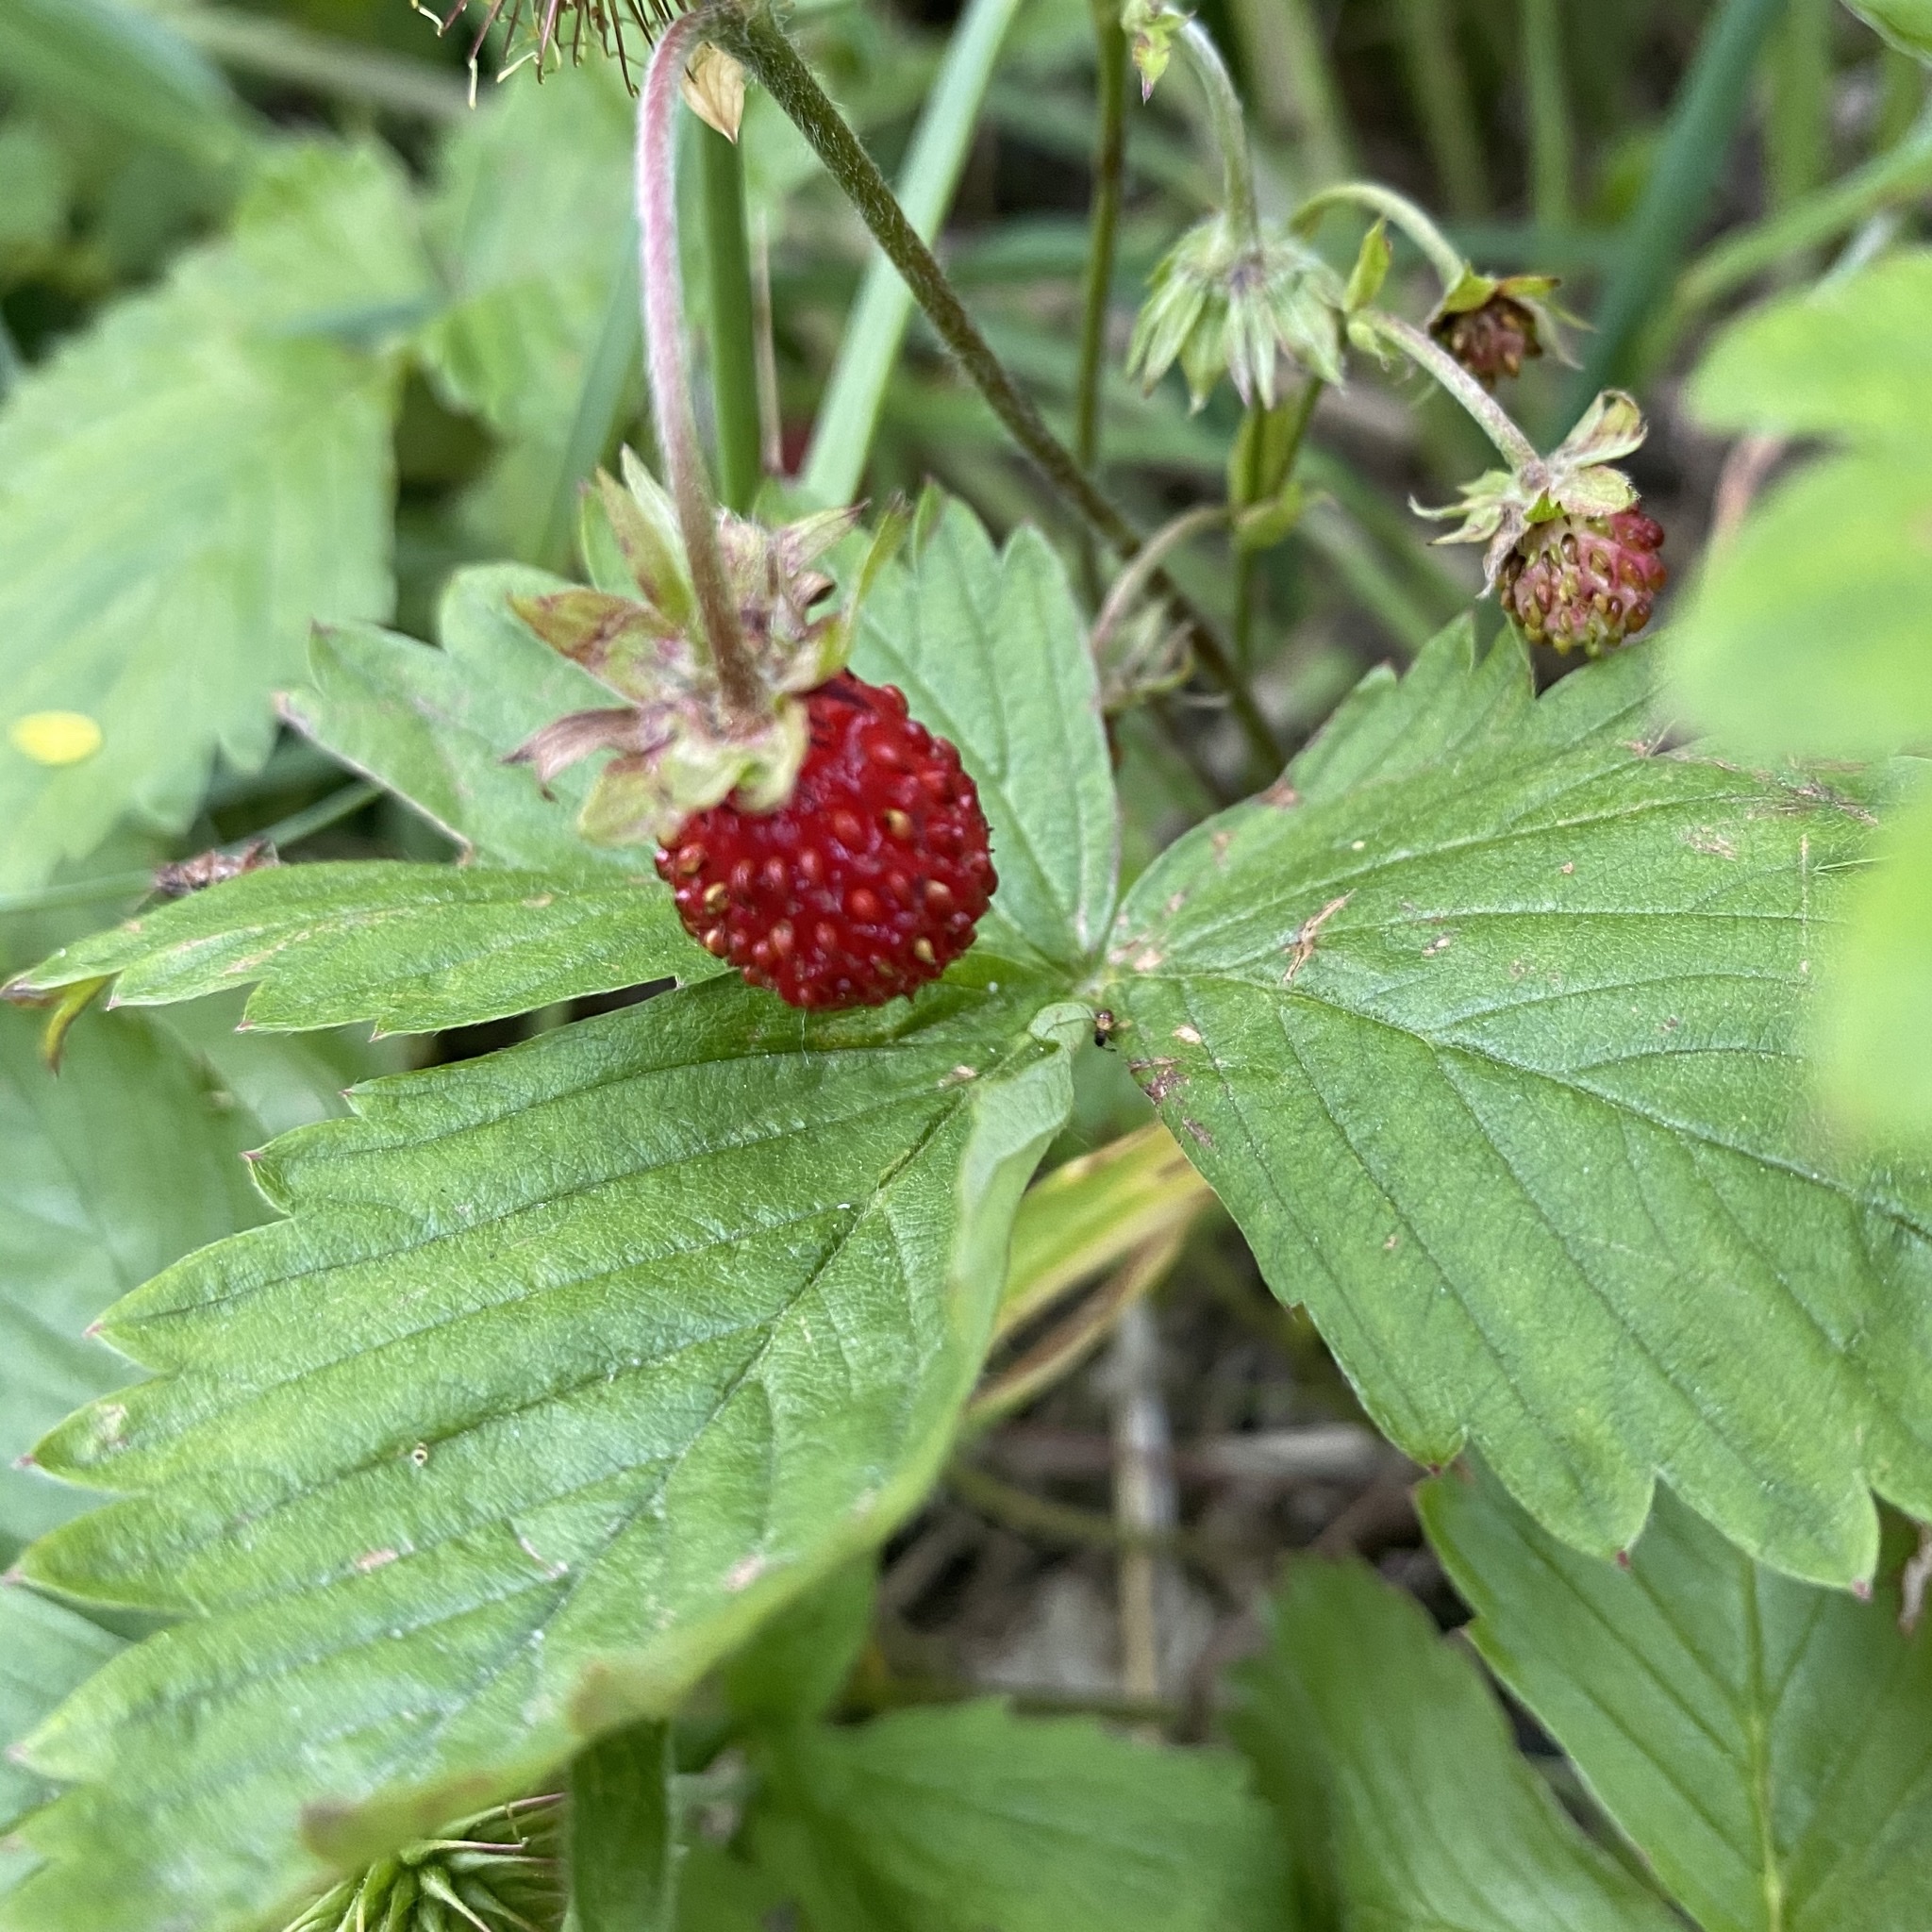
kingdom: Plantae
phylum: Tracheophyta
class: Magnoliopsida
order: Rosales
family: Rosaceae
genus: Fragaria
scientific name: Fragaria vesca
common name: Wild strawberry
